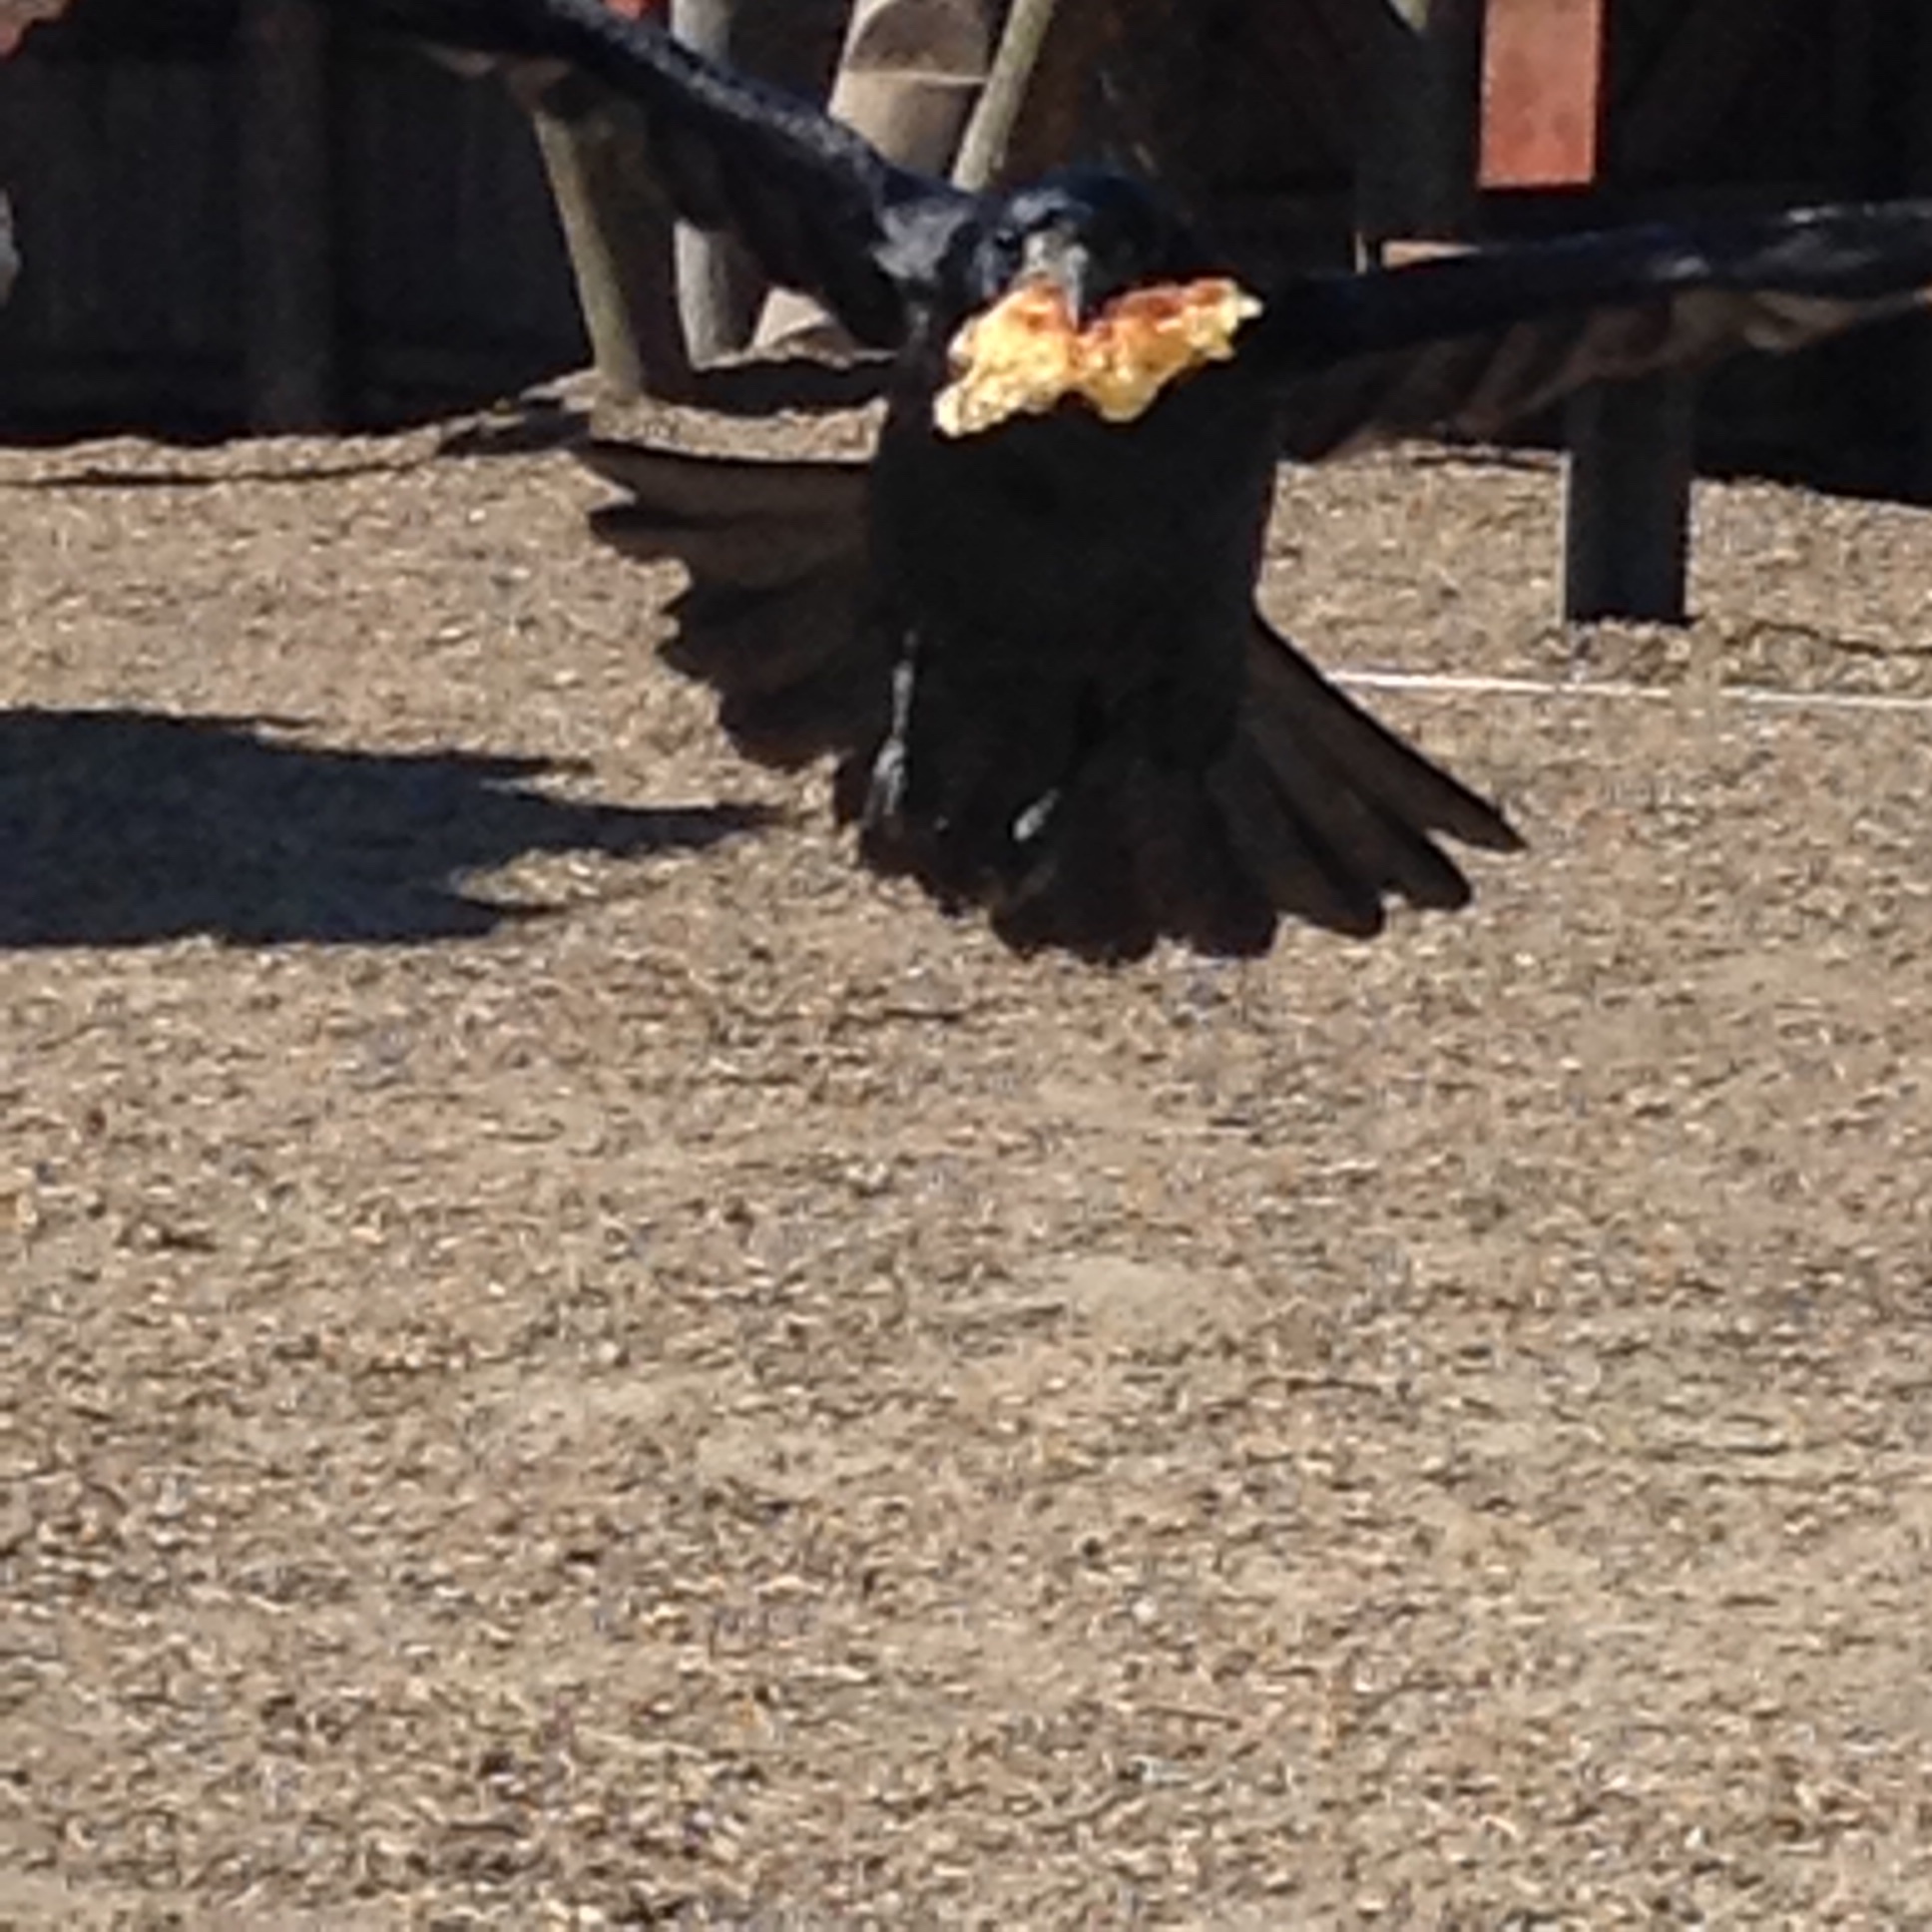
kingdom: Animalia
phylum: Chordata
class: Aves
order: Passeriformes
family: Corvidae
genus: Corvus
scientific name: Corvus frugilegus
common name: Rook
